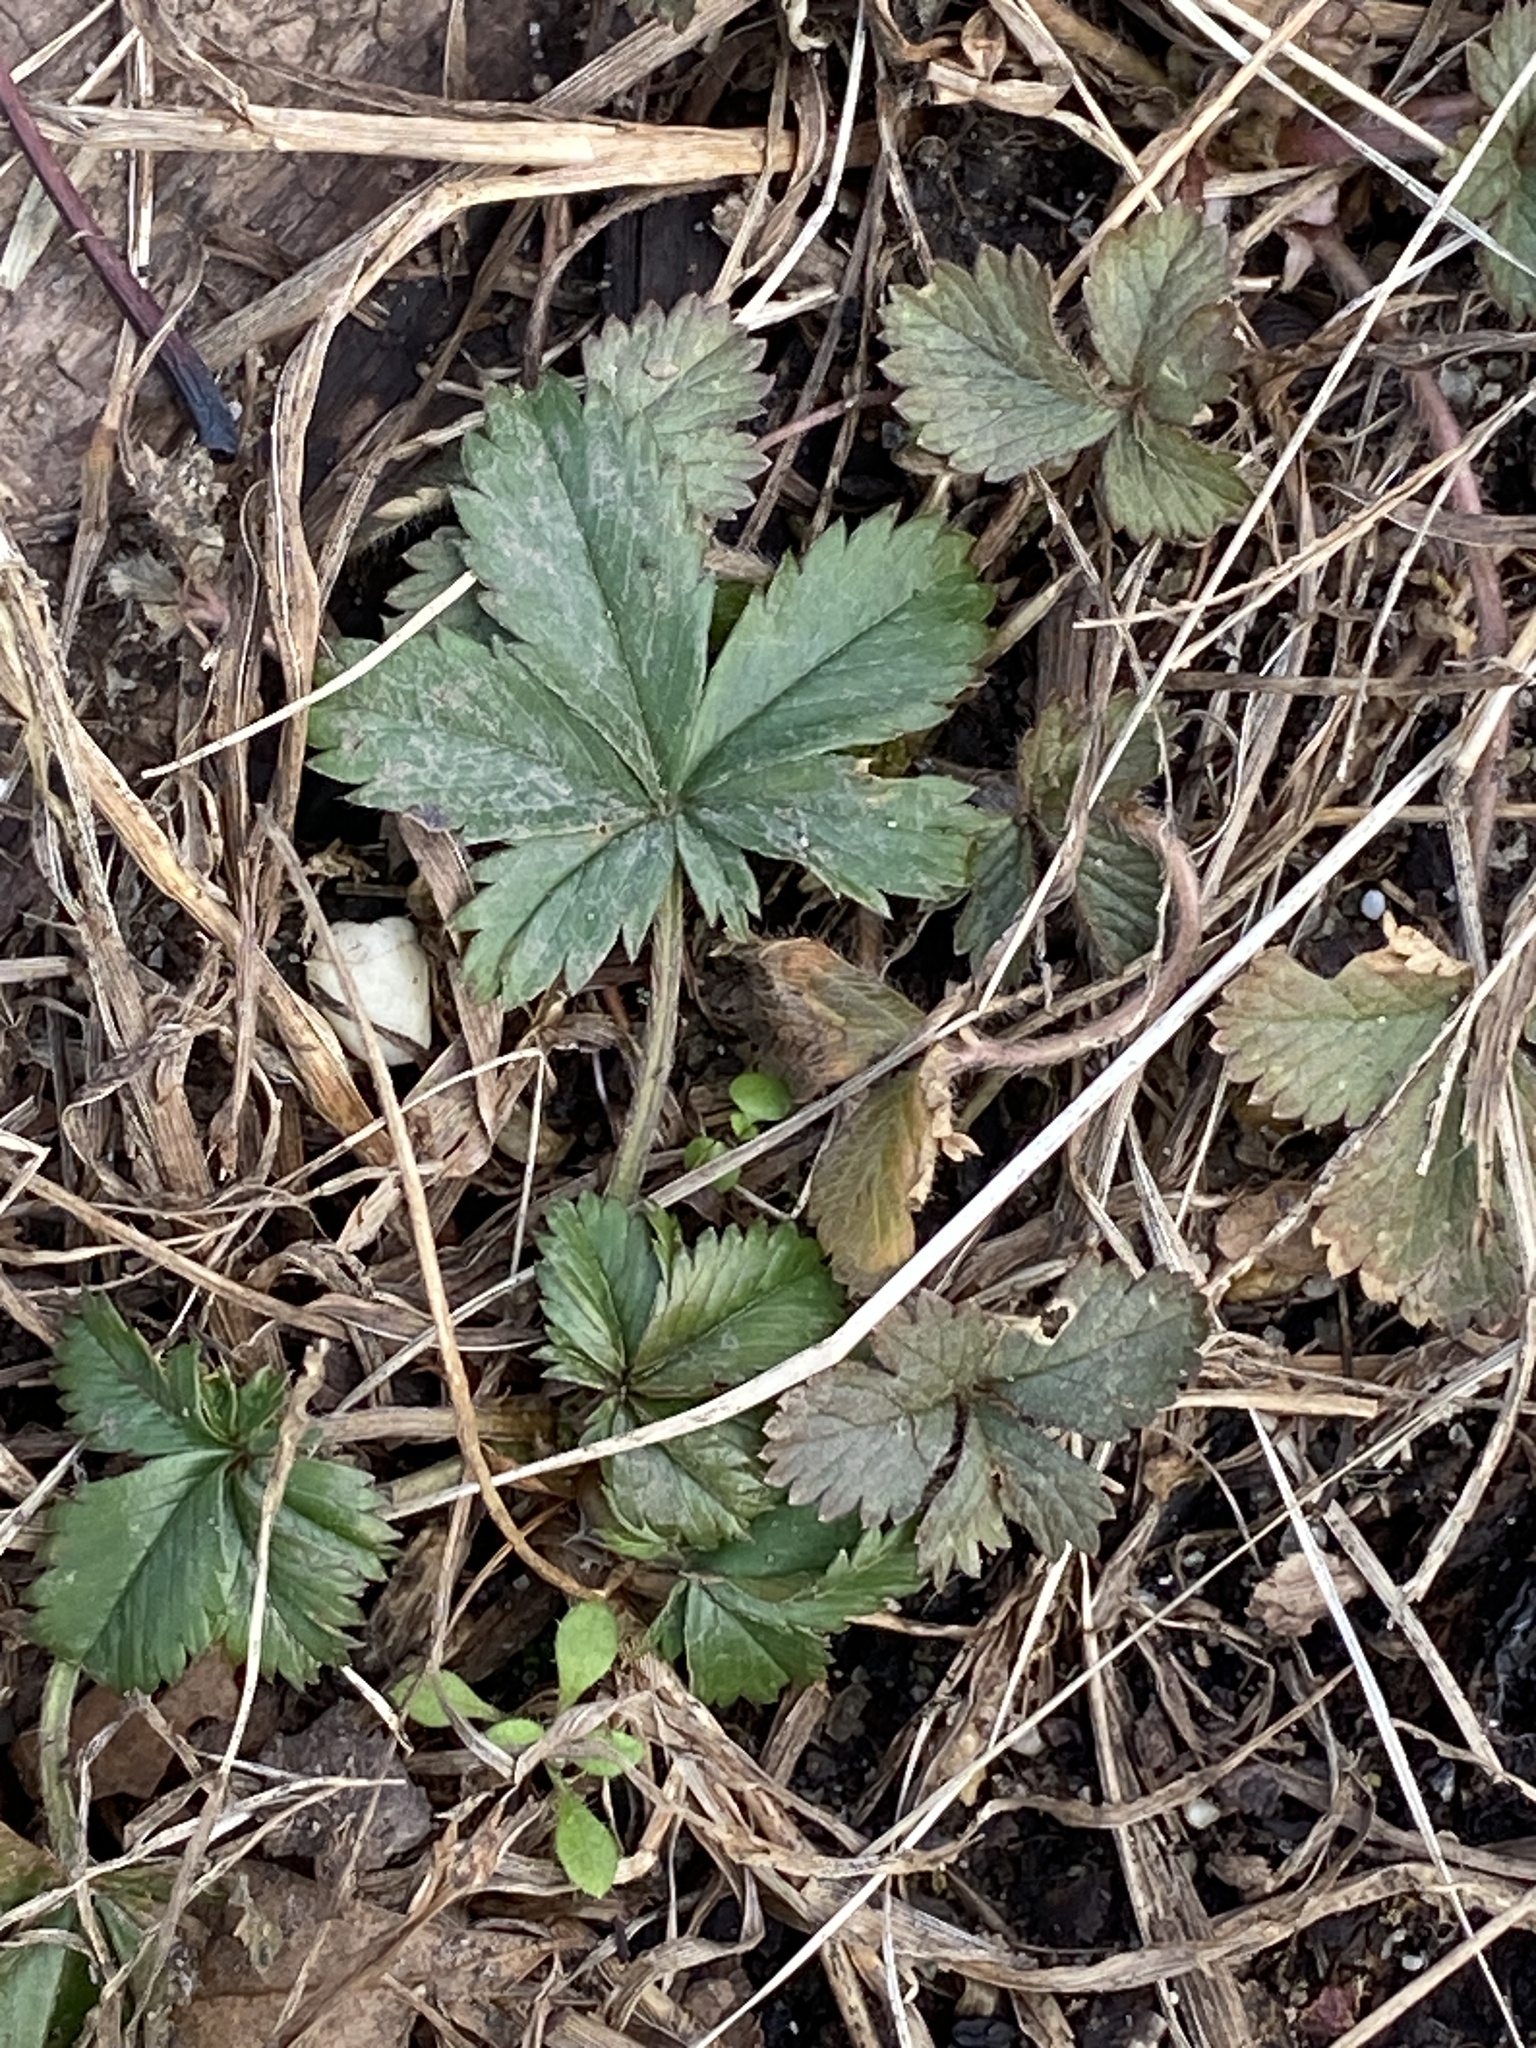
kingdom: Plantae
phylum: Tracheophyta
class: Magnoliopsida
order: Rosales
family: Rosaceae
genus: Potentilla
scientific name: Potentilla canadensis
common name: Canada cinquefoil
